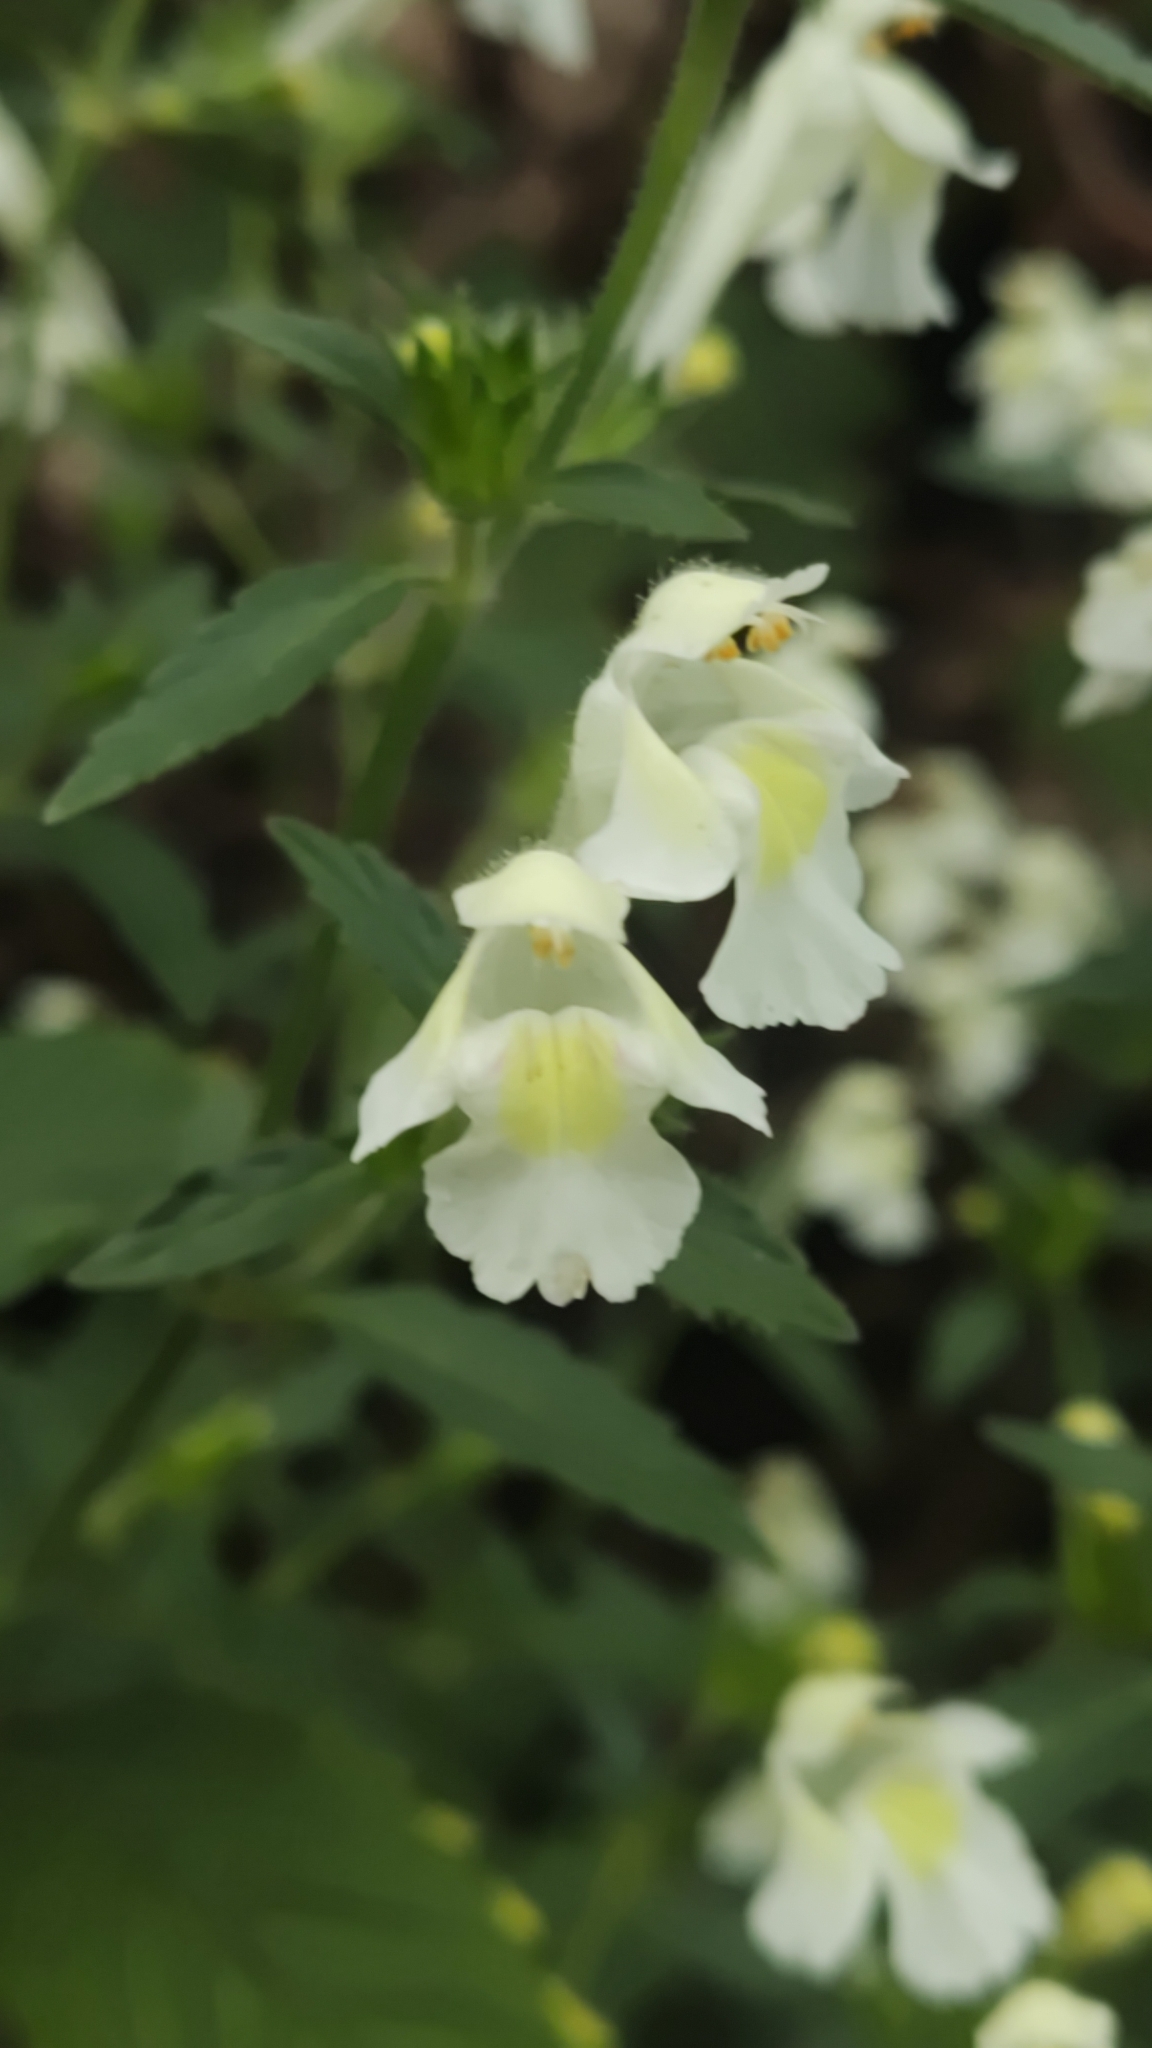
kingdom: Plantae
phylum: Tracheophyta
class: Magnoliopsida
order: Lamiales
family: Lamiaceae
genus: Galeopsis
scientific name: Galeopsis segetum
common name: Downy hemp-nettle
